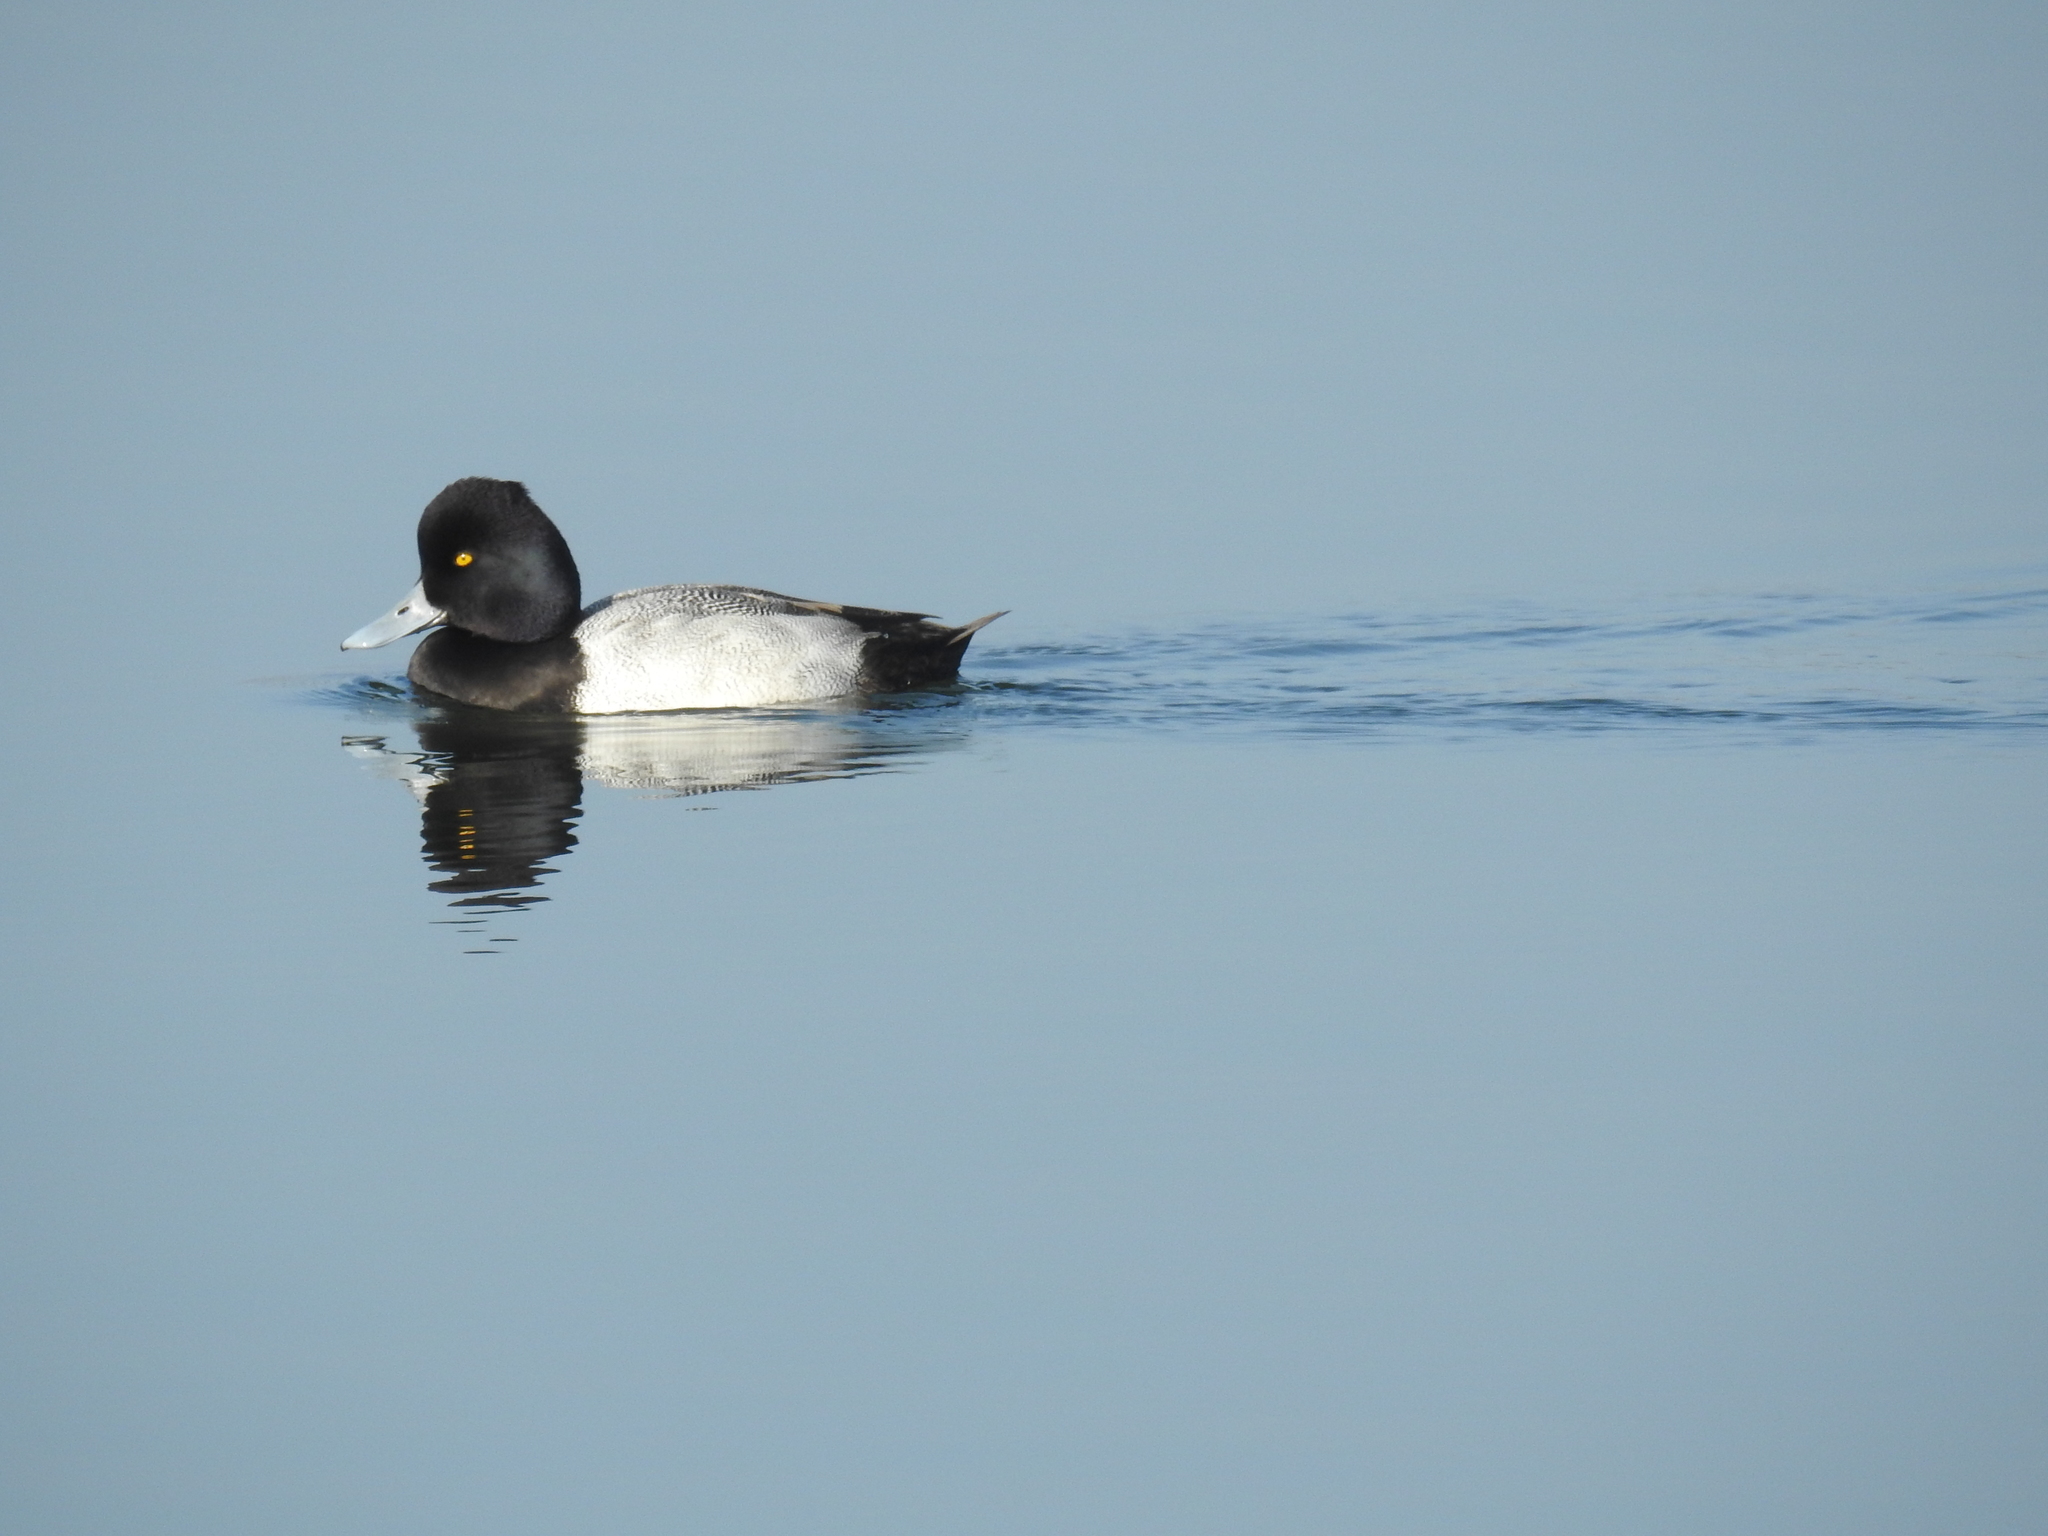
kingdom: Animalia
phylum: Chordata
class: Aves
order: Anseriformes
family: Anatidae
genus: Aythya
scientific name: Aythya affinis
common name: Lesser scaup
